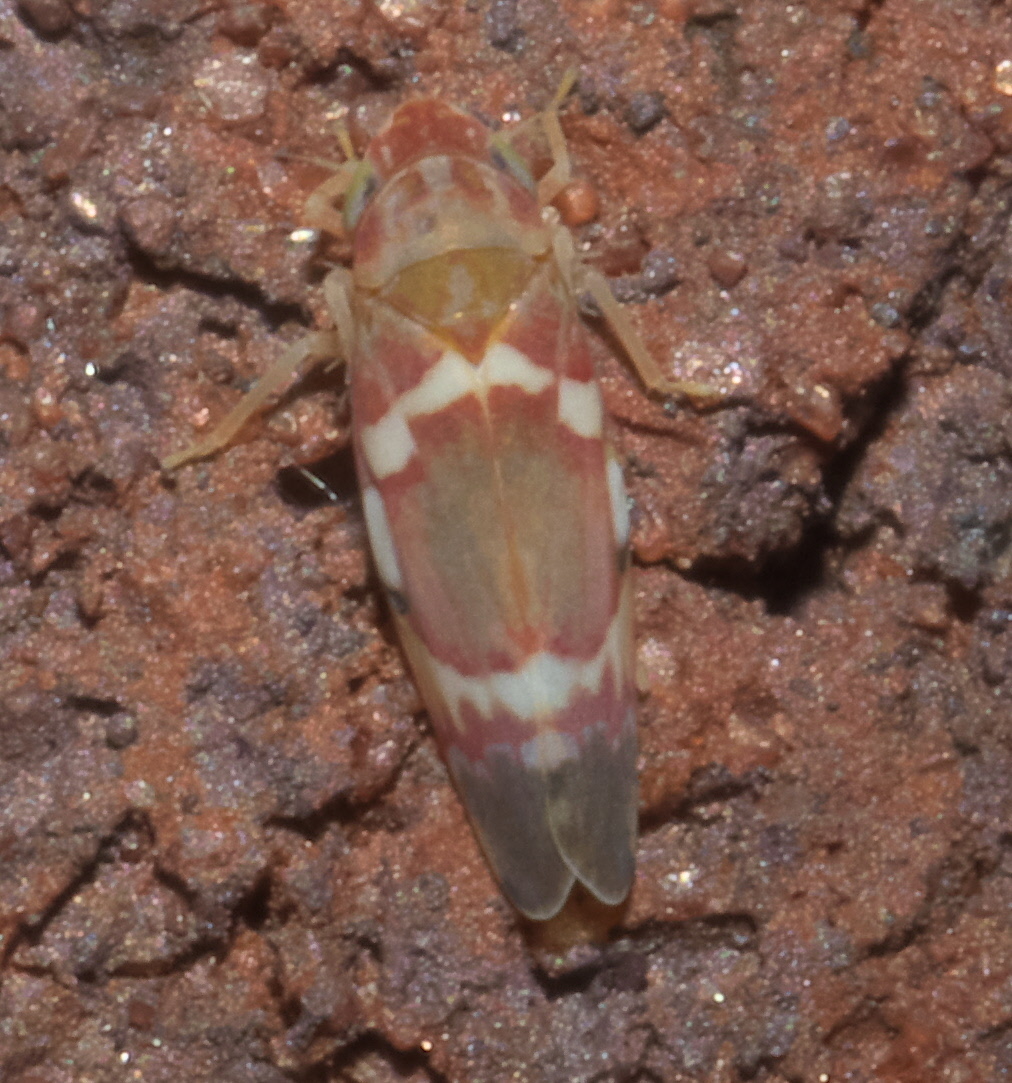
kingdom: Animalia
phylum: Arthropoda
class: Insecta
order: Hemiptera
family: Cicadellidae
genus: Erythroneura
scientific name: Erythroneura vitis
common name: Grapevine leafhopper
